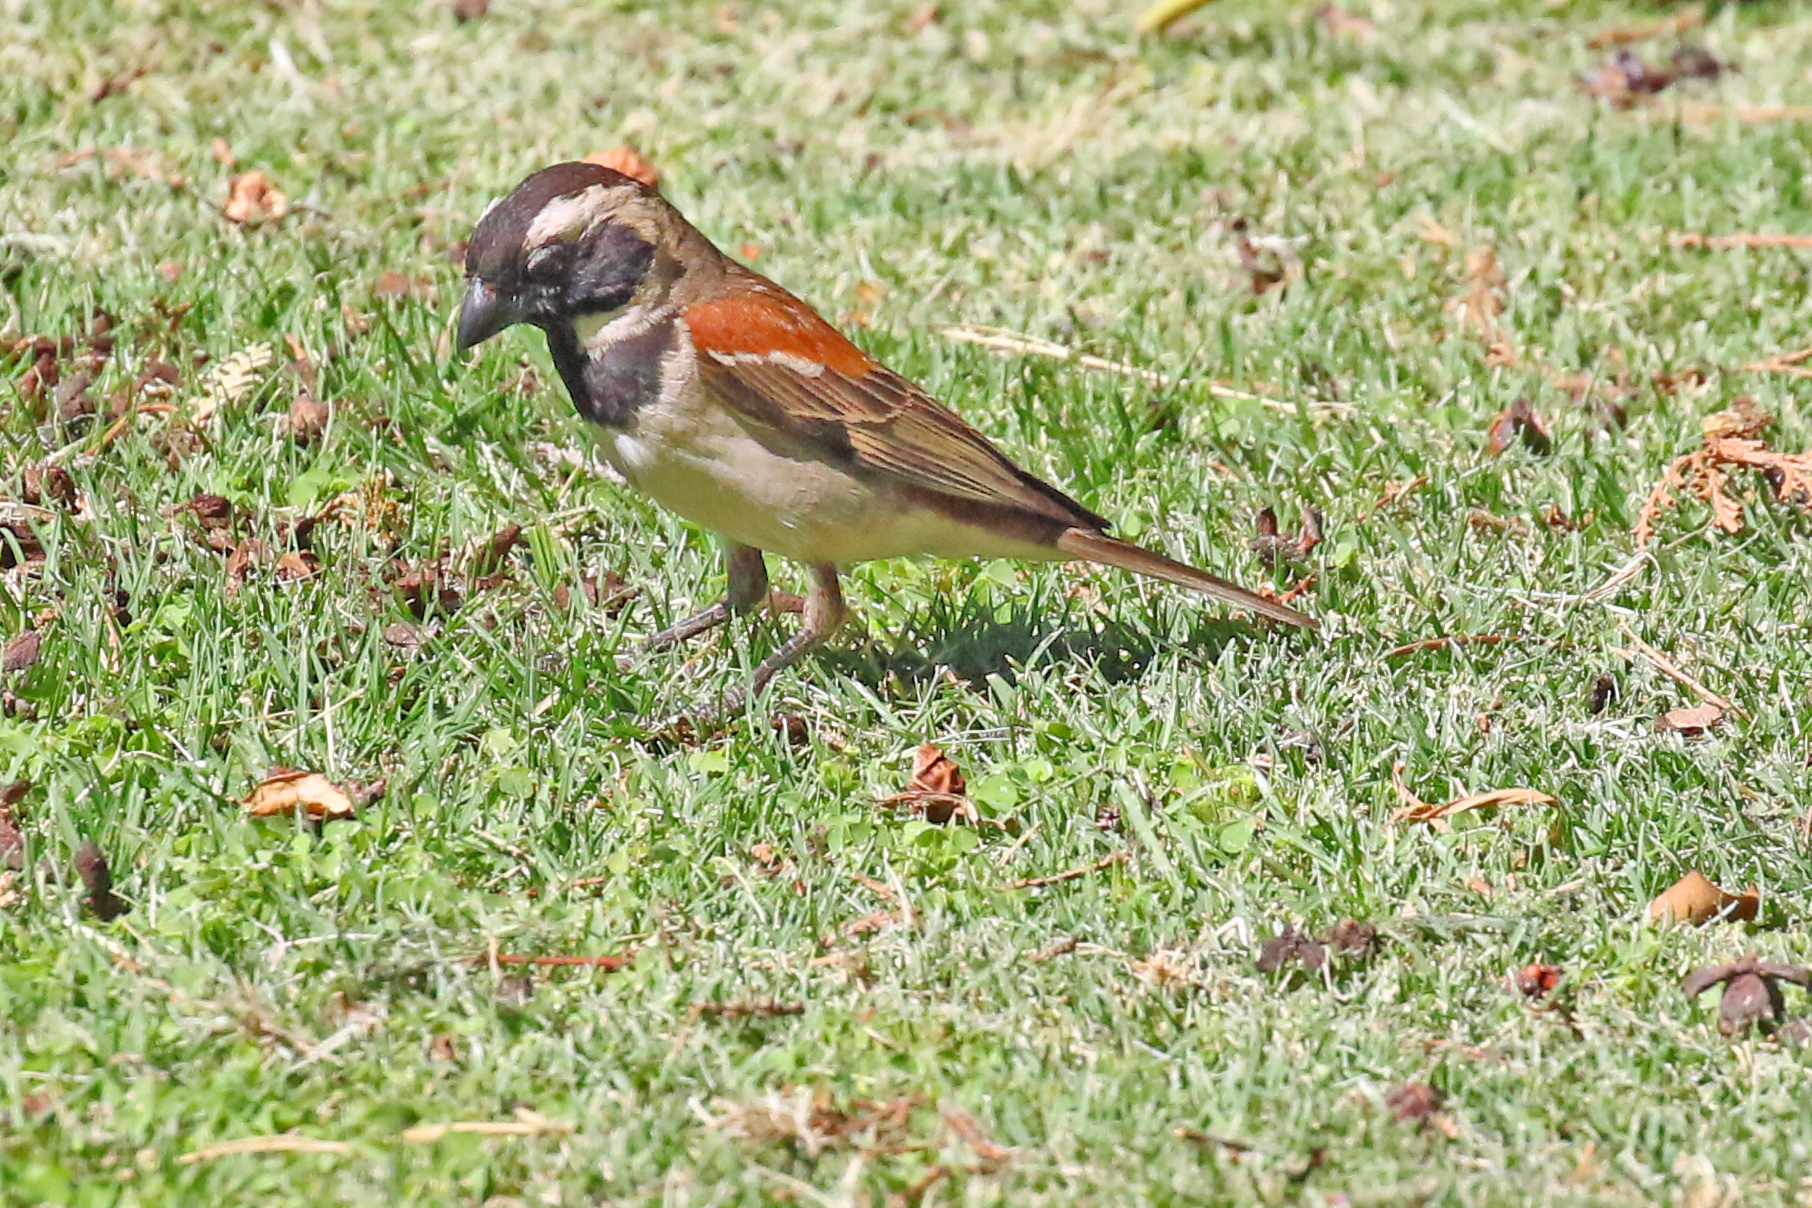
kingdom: Animalia
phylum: Chordata
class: Aves
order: Passeriformes
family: Passeridae
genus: Passer
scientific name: Passer melanurus
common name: Cape sparrow
